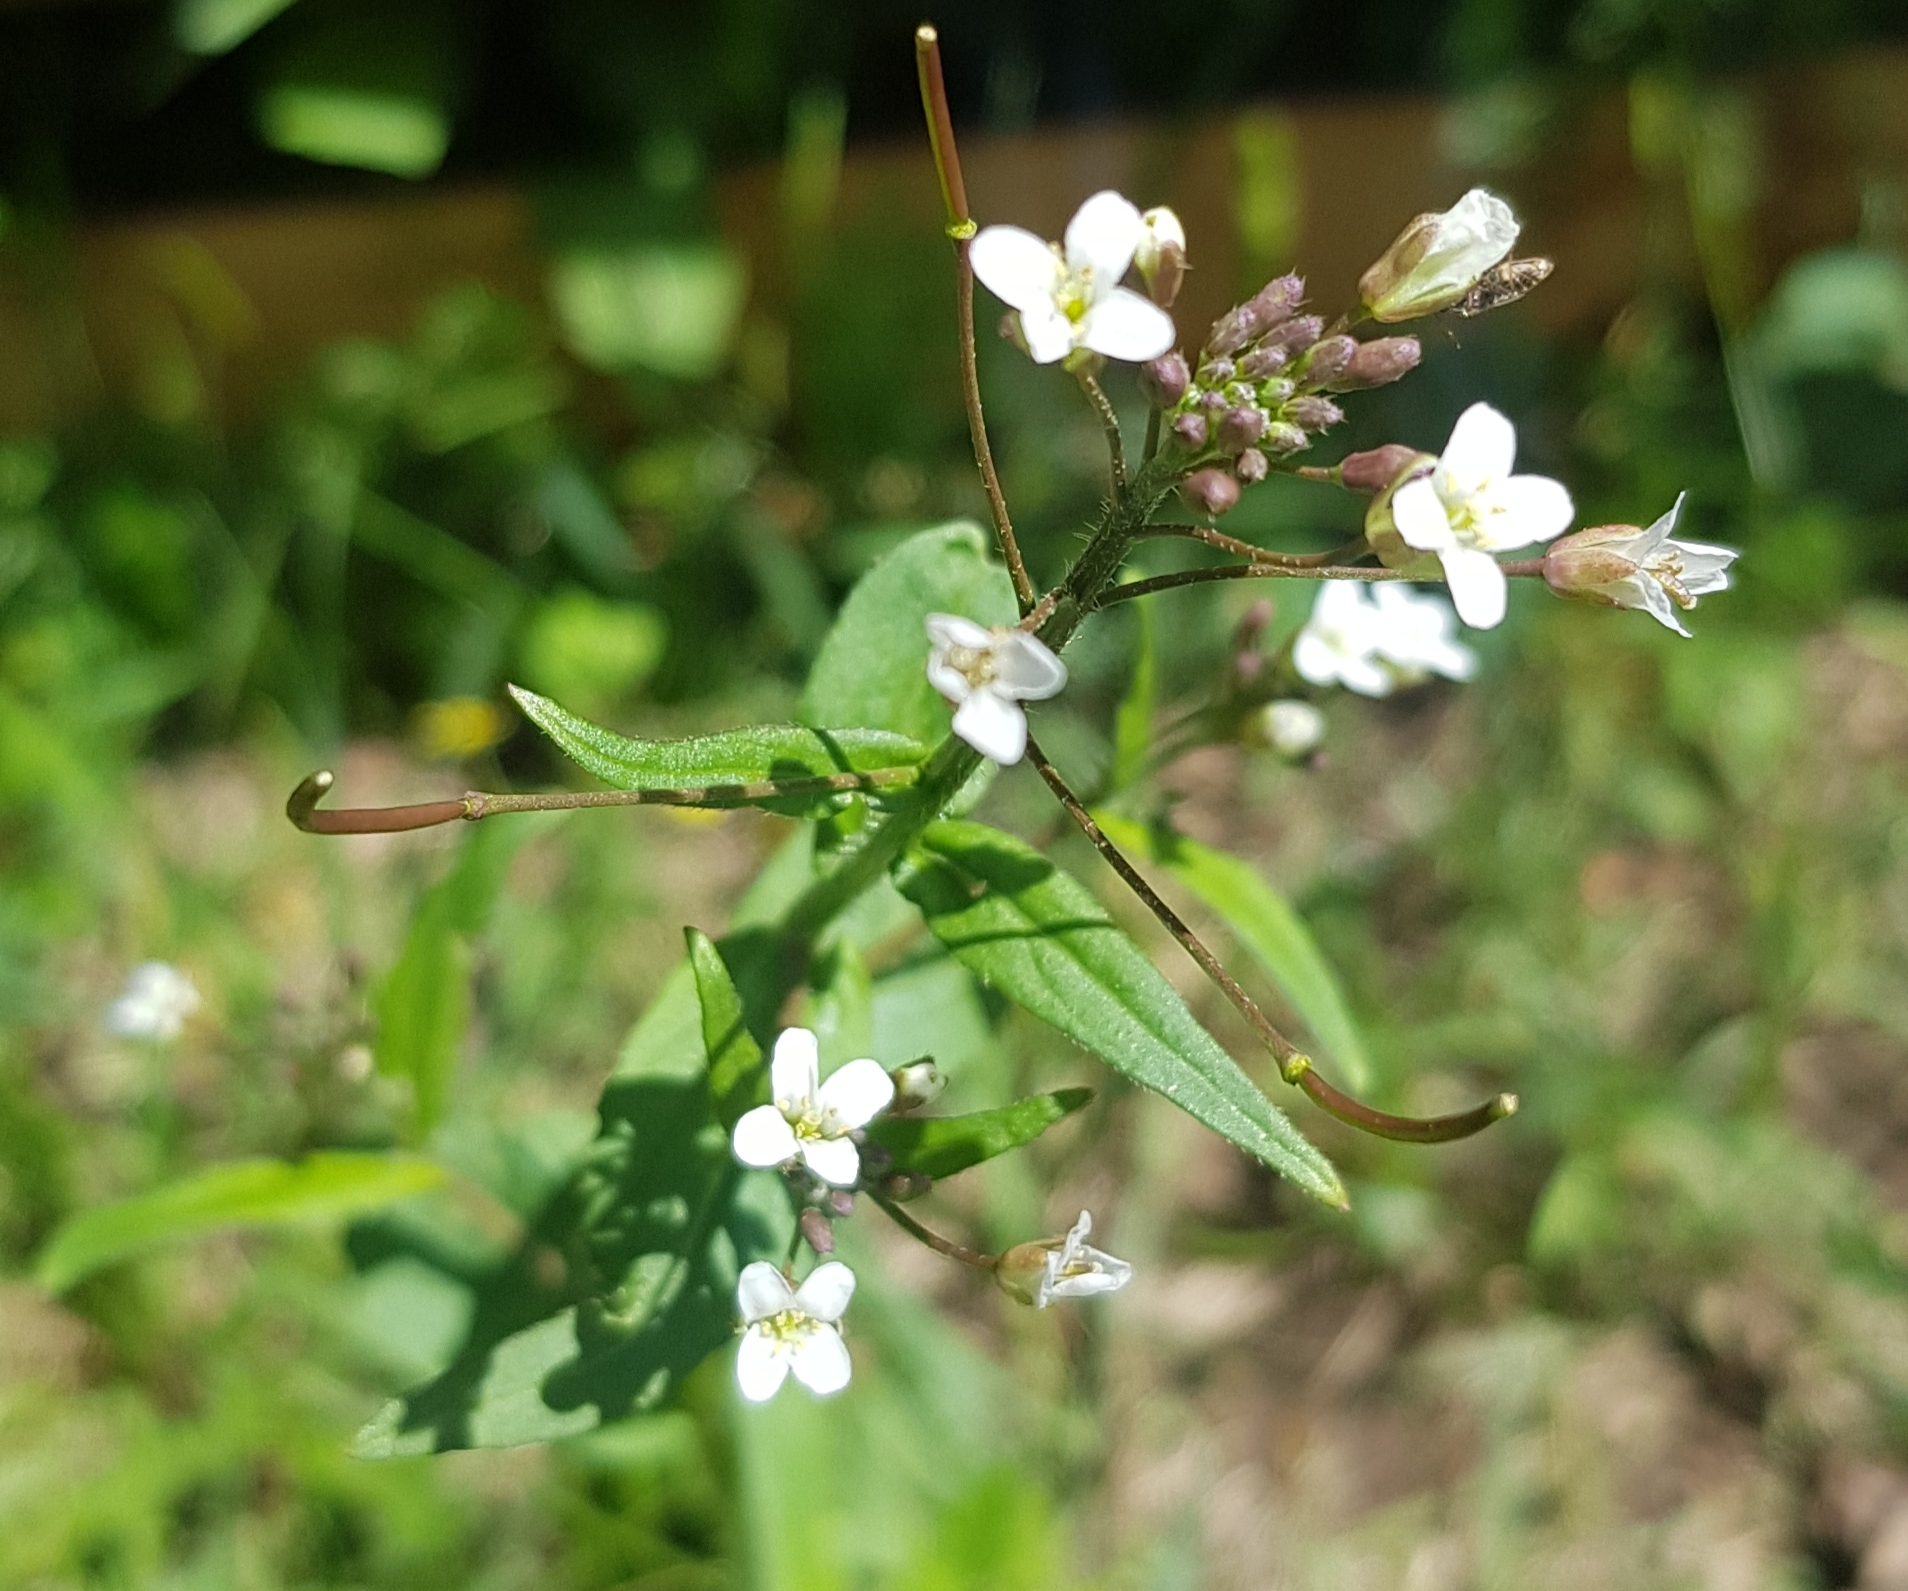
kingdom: Plantae
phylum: Tracheophyta
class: Magnoliopsida
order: Brassicales
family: Brassicaceae
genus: Catolobus
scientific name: Catolobus pendulus
